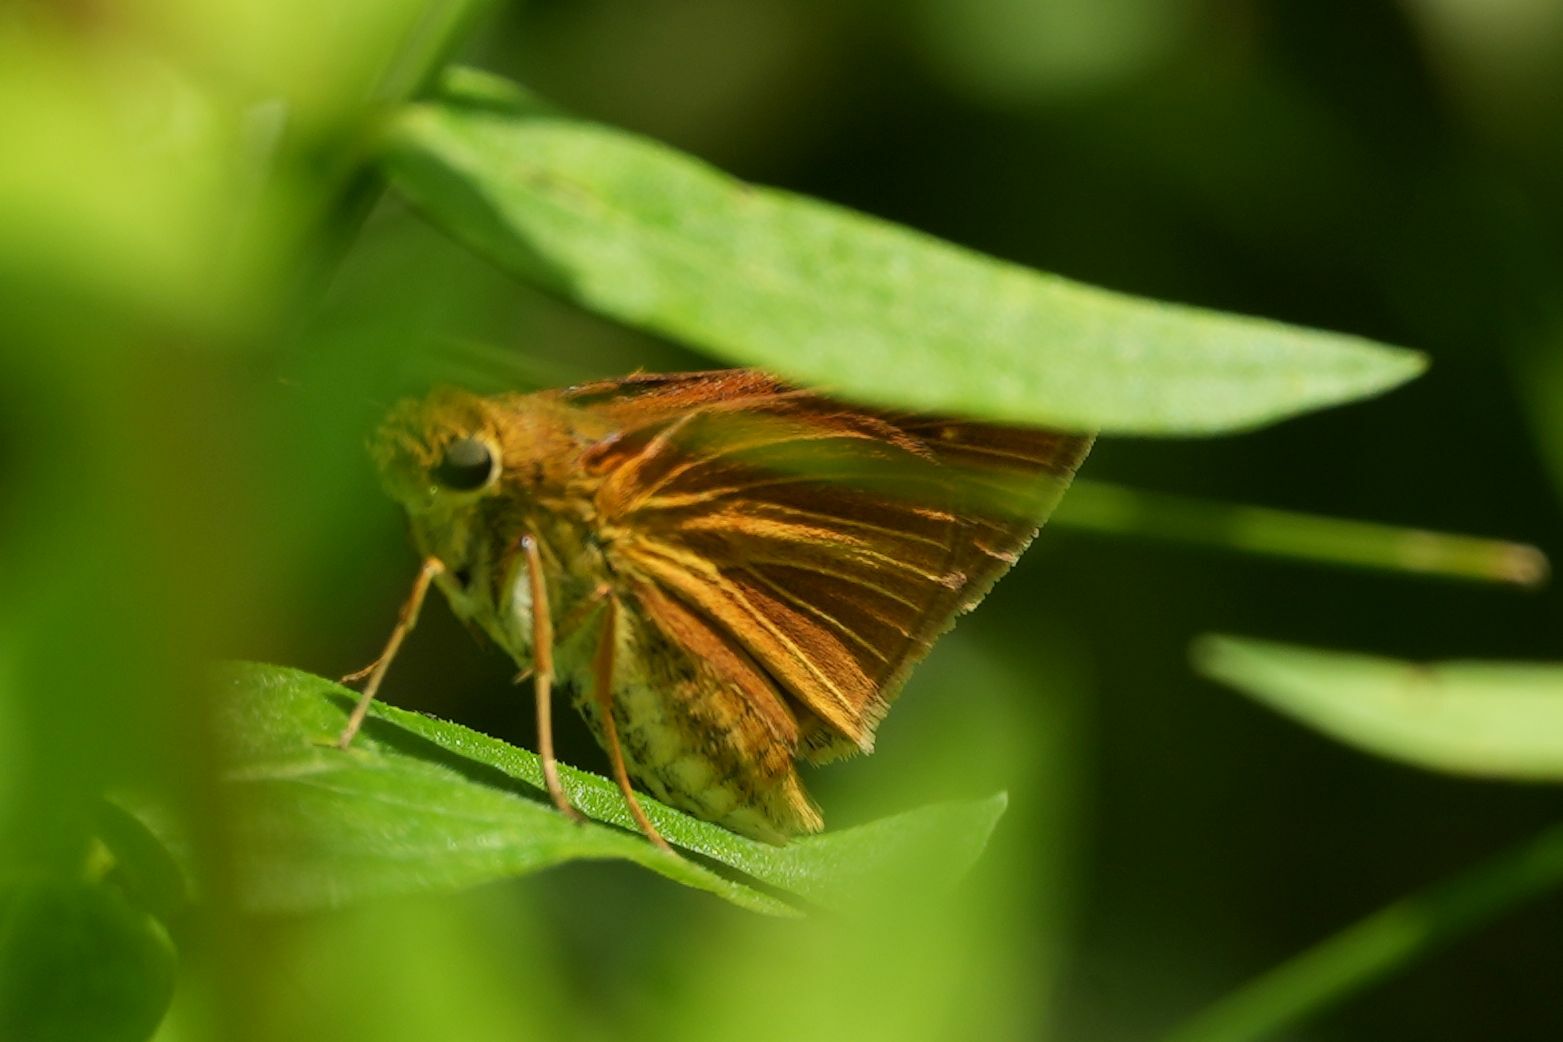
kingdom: Animalia
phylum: Arthropoda
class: Insecta
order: Lepidoptera
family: Hesperiidae
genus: Euphyes
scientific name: Euphyes dion
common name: Dion skipper
